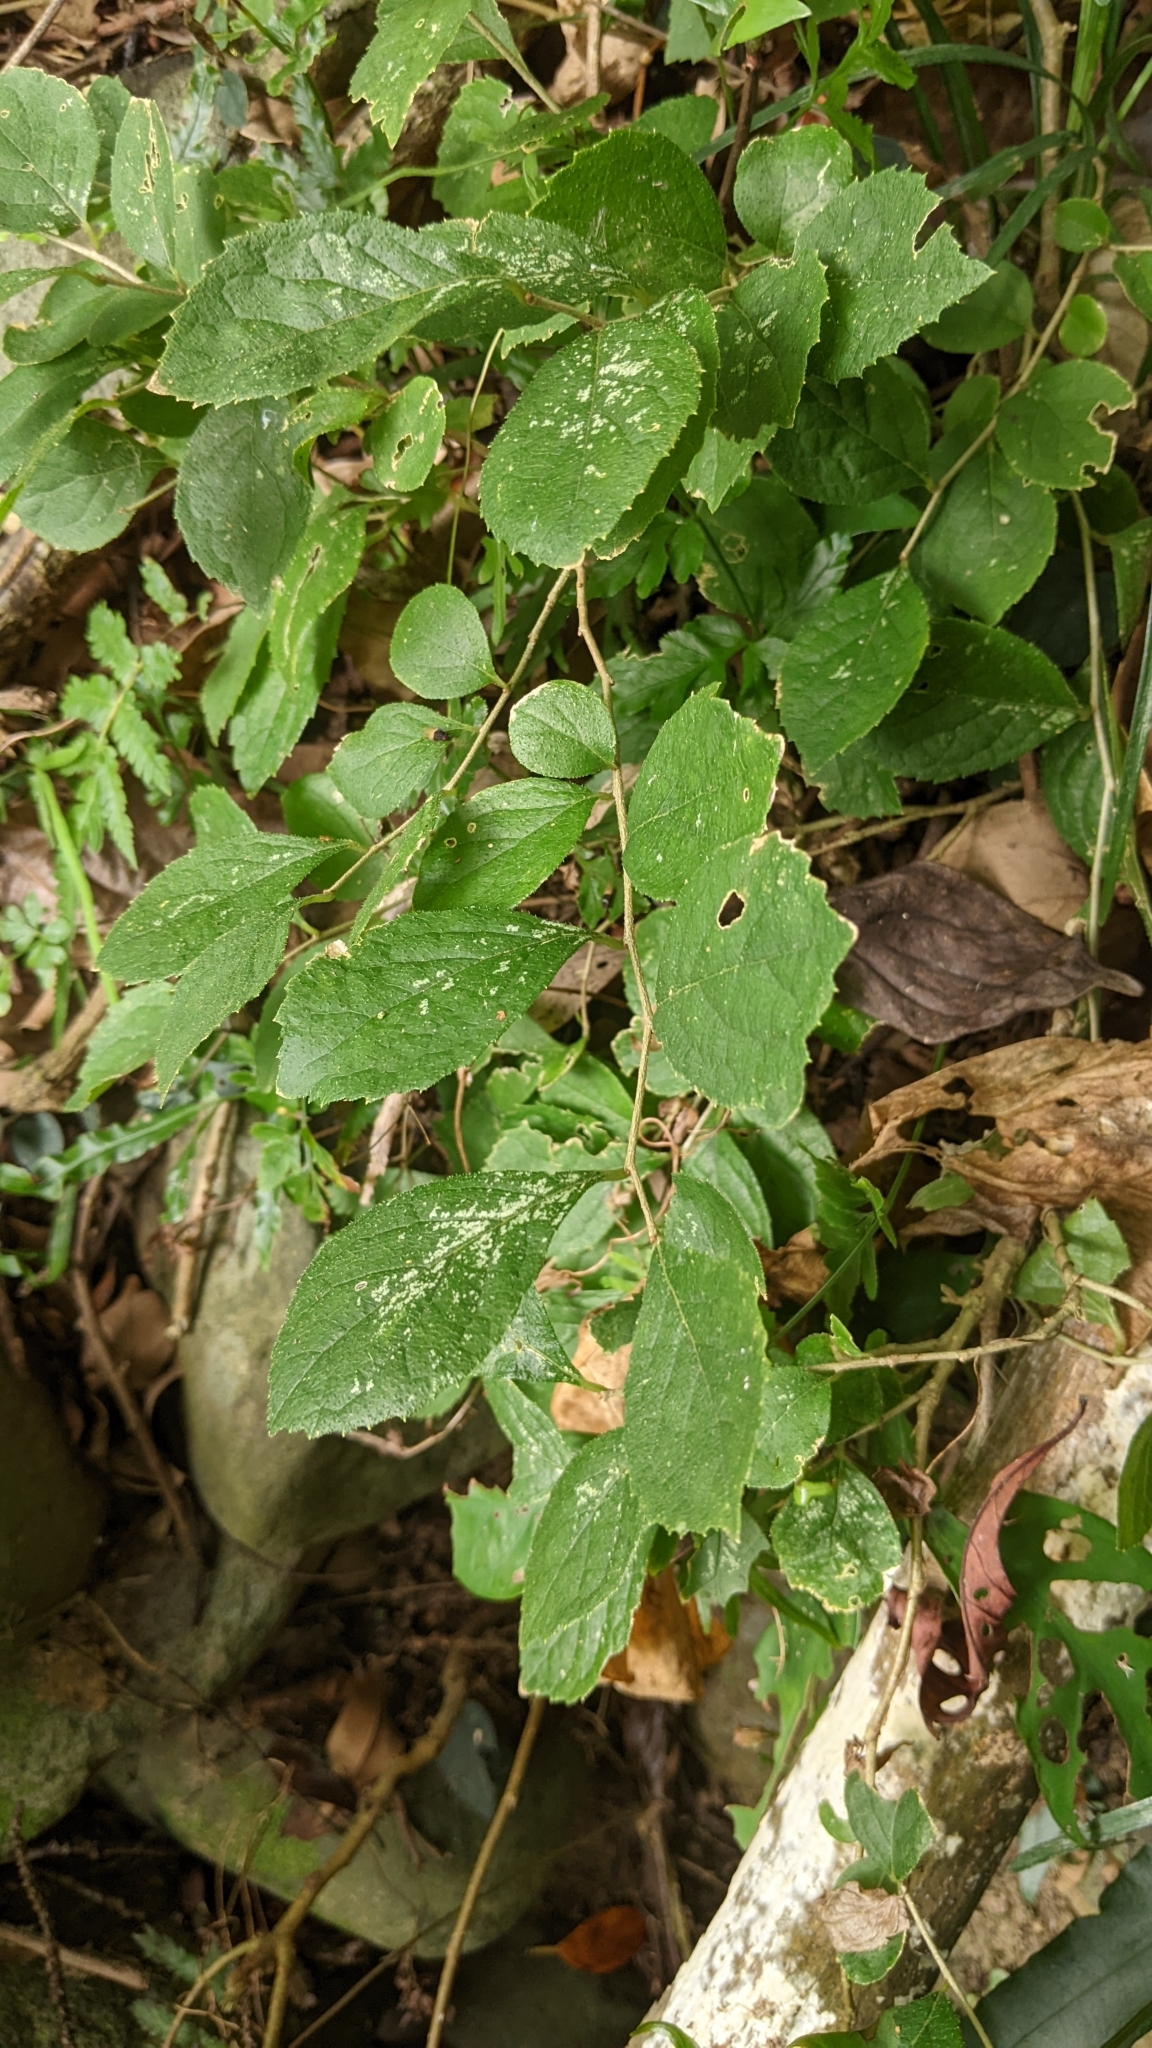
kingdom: Plantae
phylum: Tracheophyta
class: Magnoliopsida
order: Ericales
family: Symplocaceae
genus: Symplocos
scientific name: Symplocos paniculata
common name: Sapphire-berry
